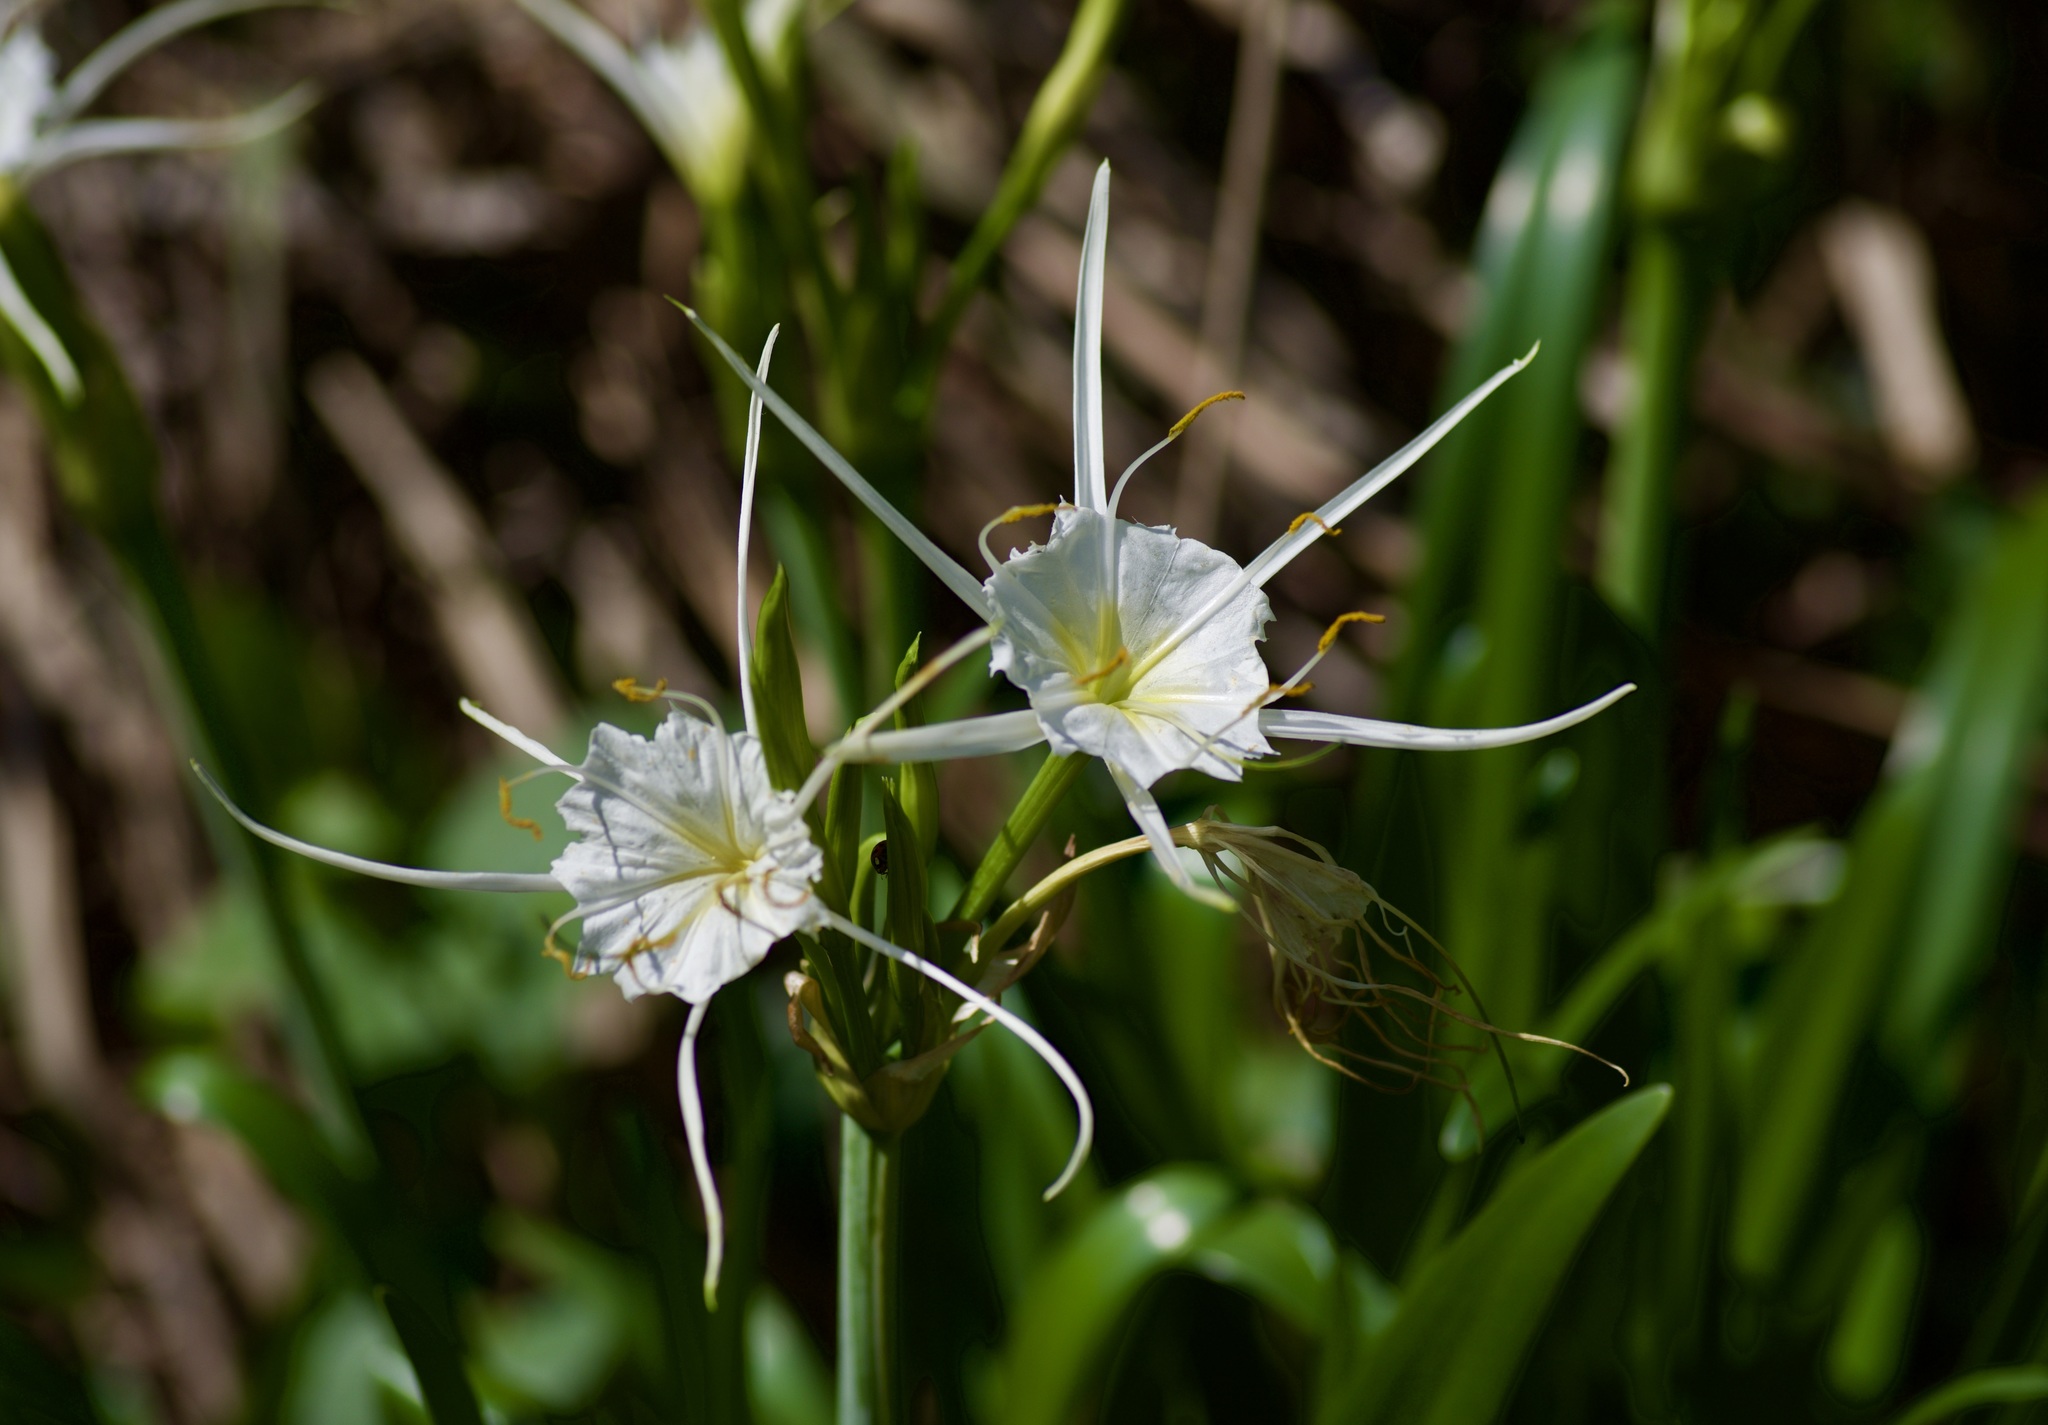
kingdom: Plantae
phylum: Tracheophyta
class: Liliopsida
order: Asparagales
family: Amaryllidaceae
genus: Hymenocallis
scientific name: Hymenocallis liriosme
